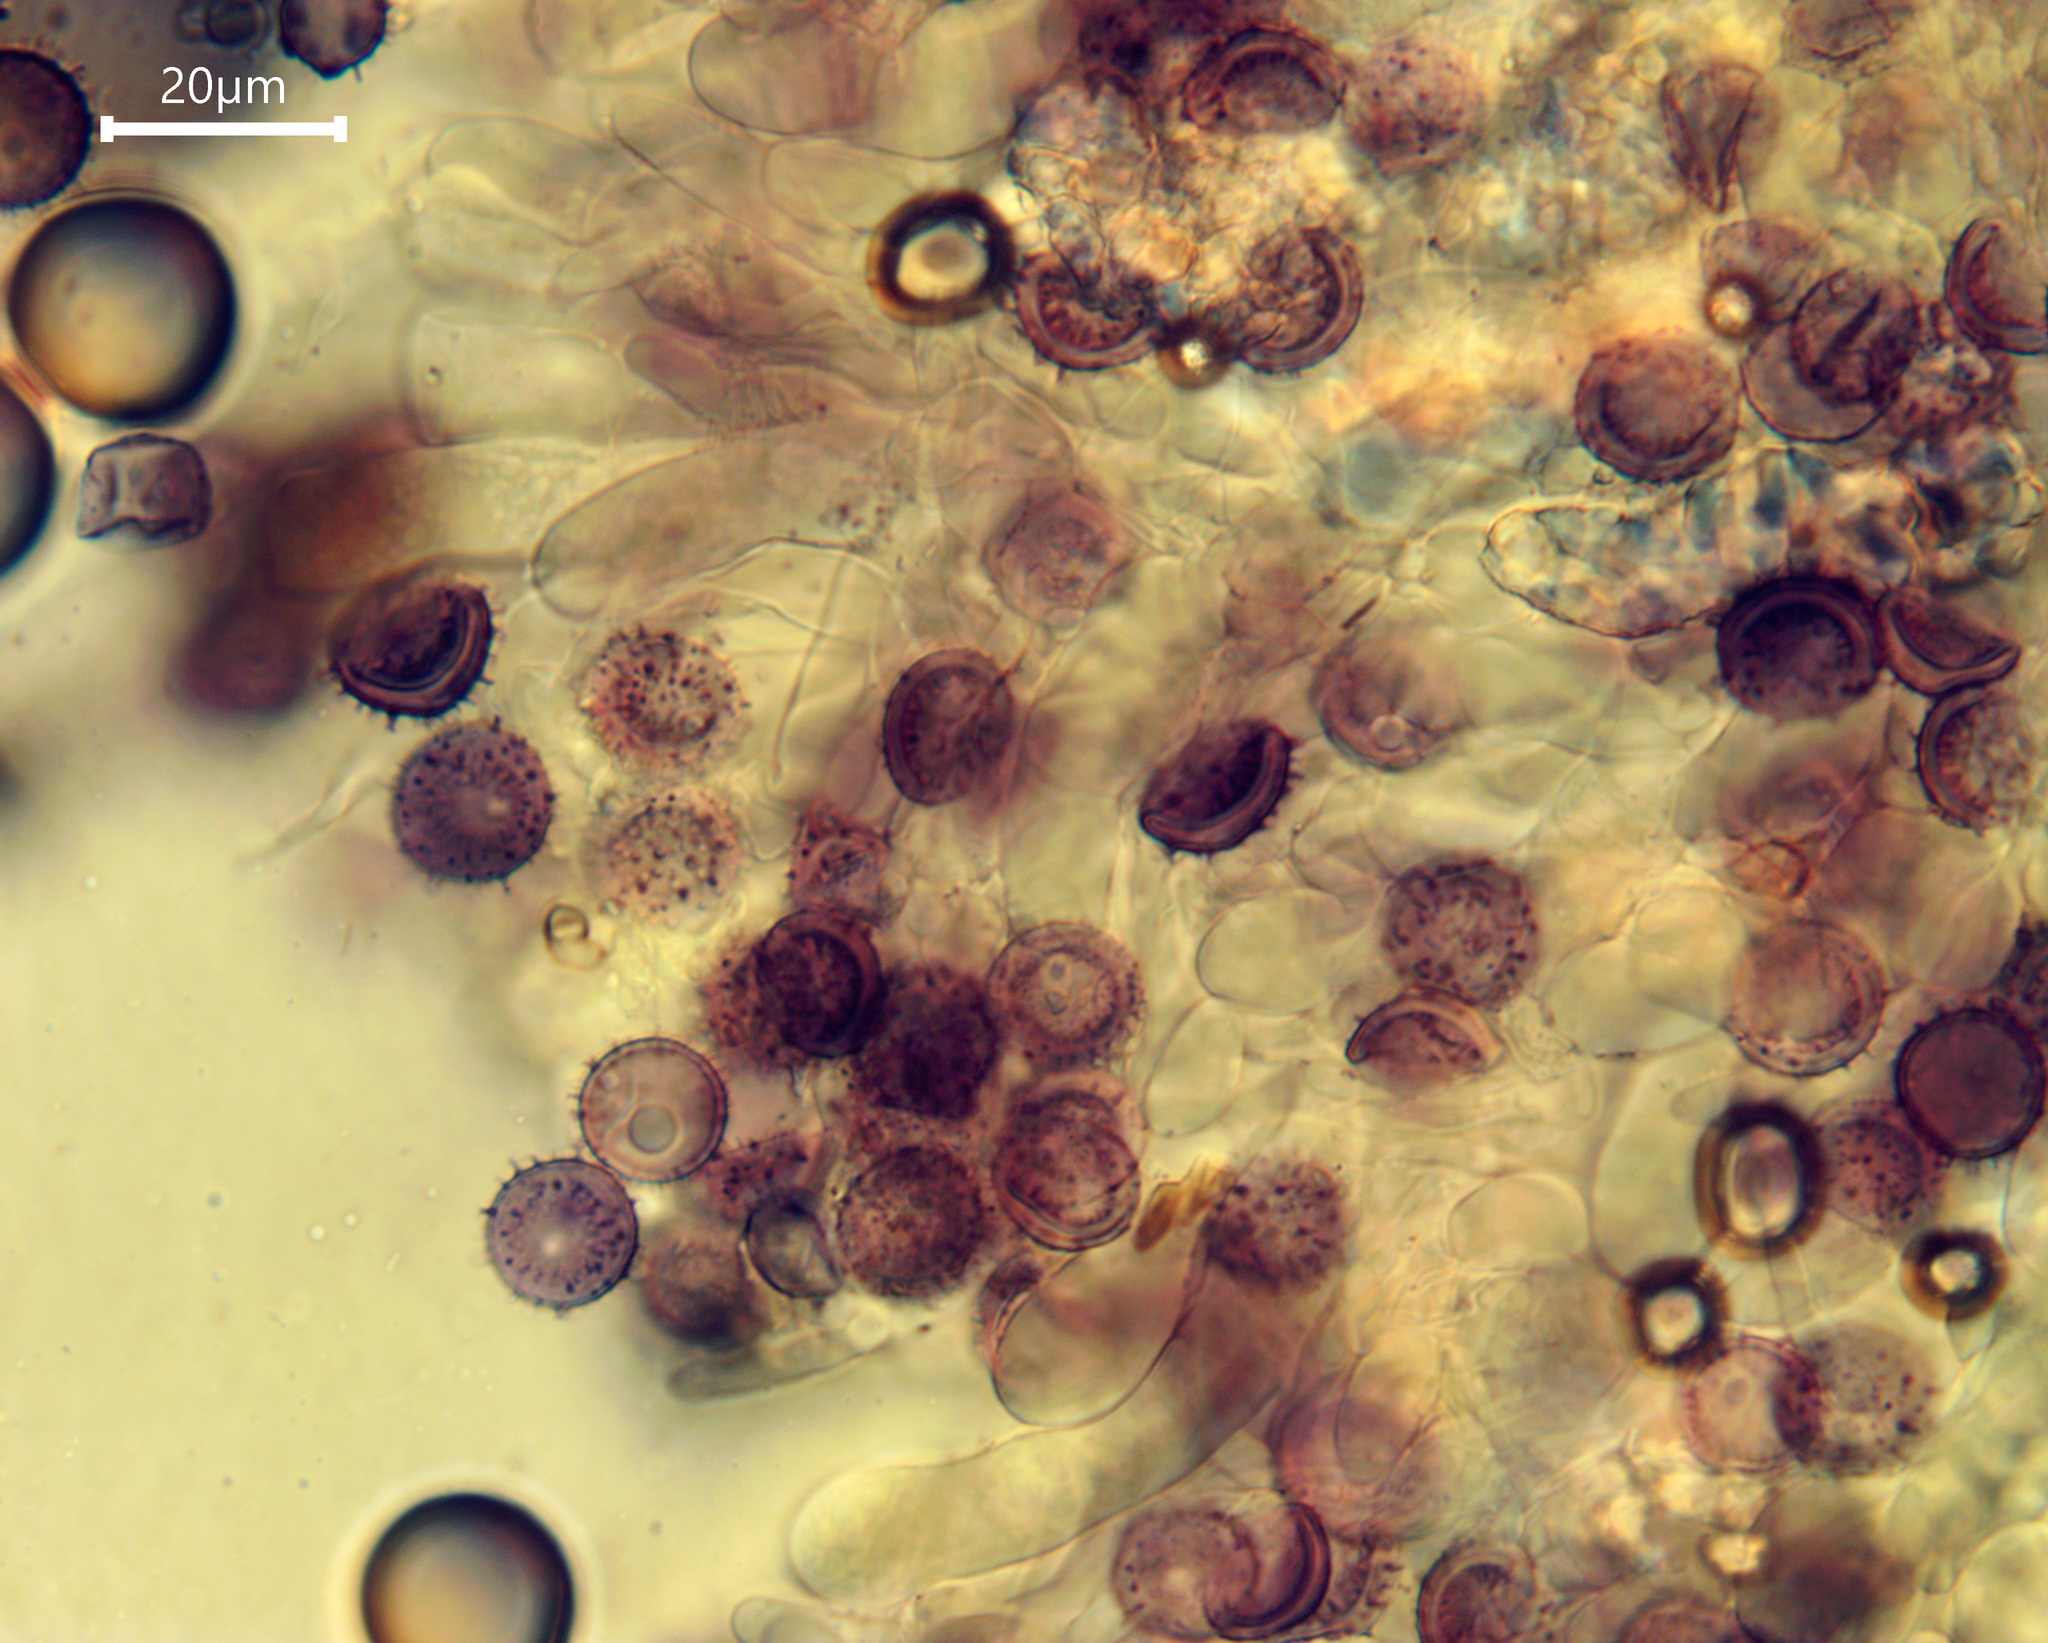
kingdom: Fungi
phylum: Basidiomycota
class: Agaricomycetes
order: Russulales
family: Stereaceae
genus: Aleurodiscus
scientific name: Aleurodiscus patelliformis
